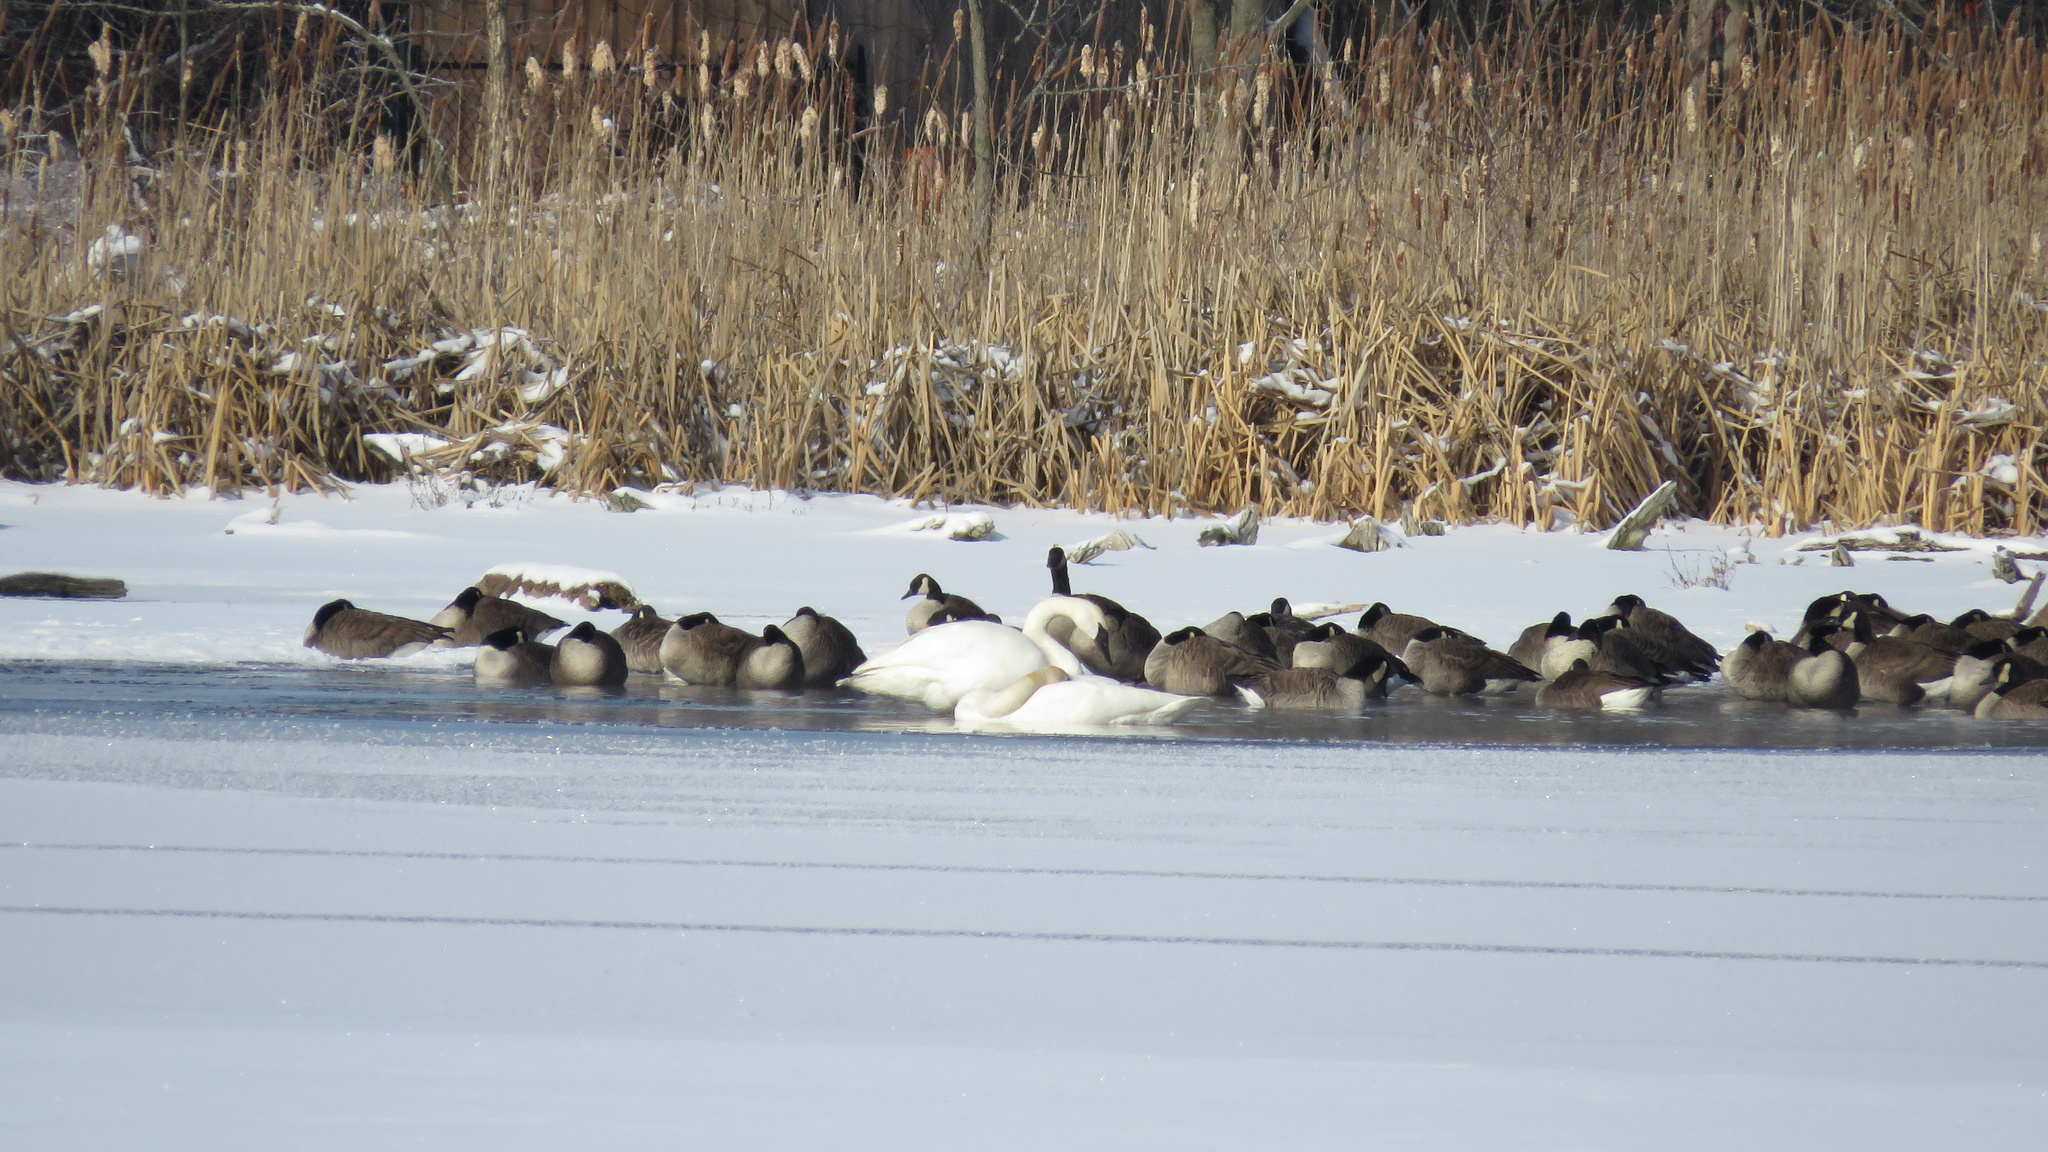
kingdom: Animalia
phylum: Chordata
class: Aves
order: Anseriformes
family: Anatidae
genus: Cygnus
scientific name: Cygnus buccinator
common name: Trumpeter swan
